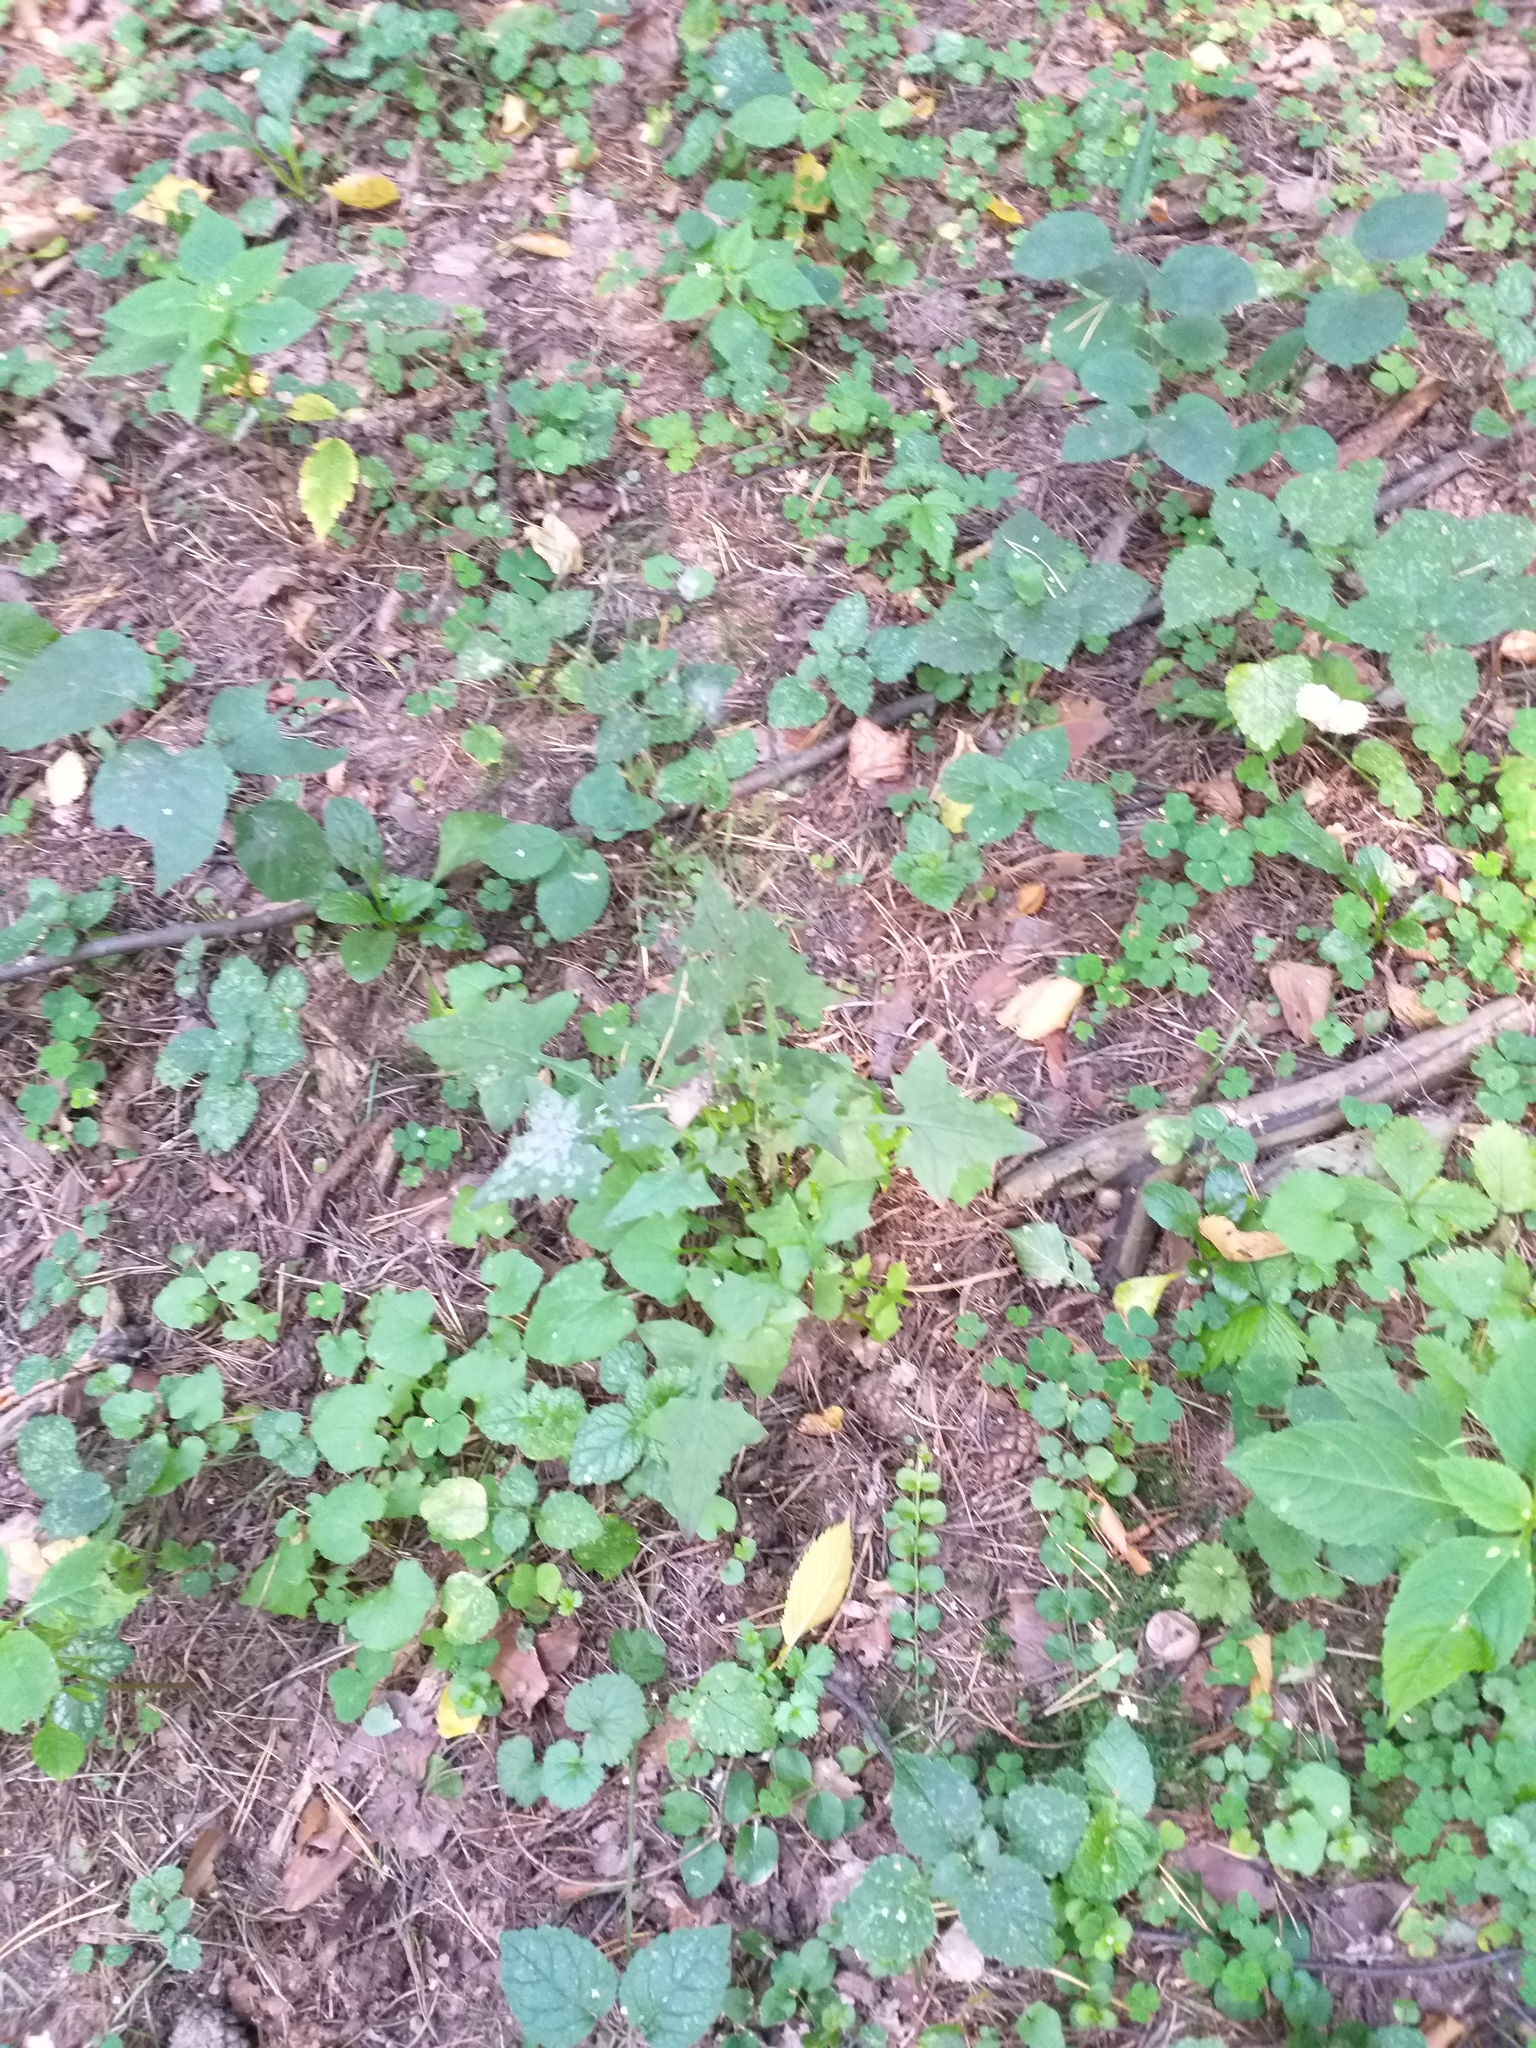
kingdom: Plantae
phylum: Tracheophyta
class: Magnoliopsida
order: Asterales
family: Asteraceae
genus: Mycelis
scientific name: Mycelis muralis
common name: Wall lettuce
